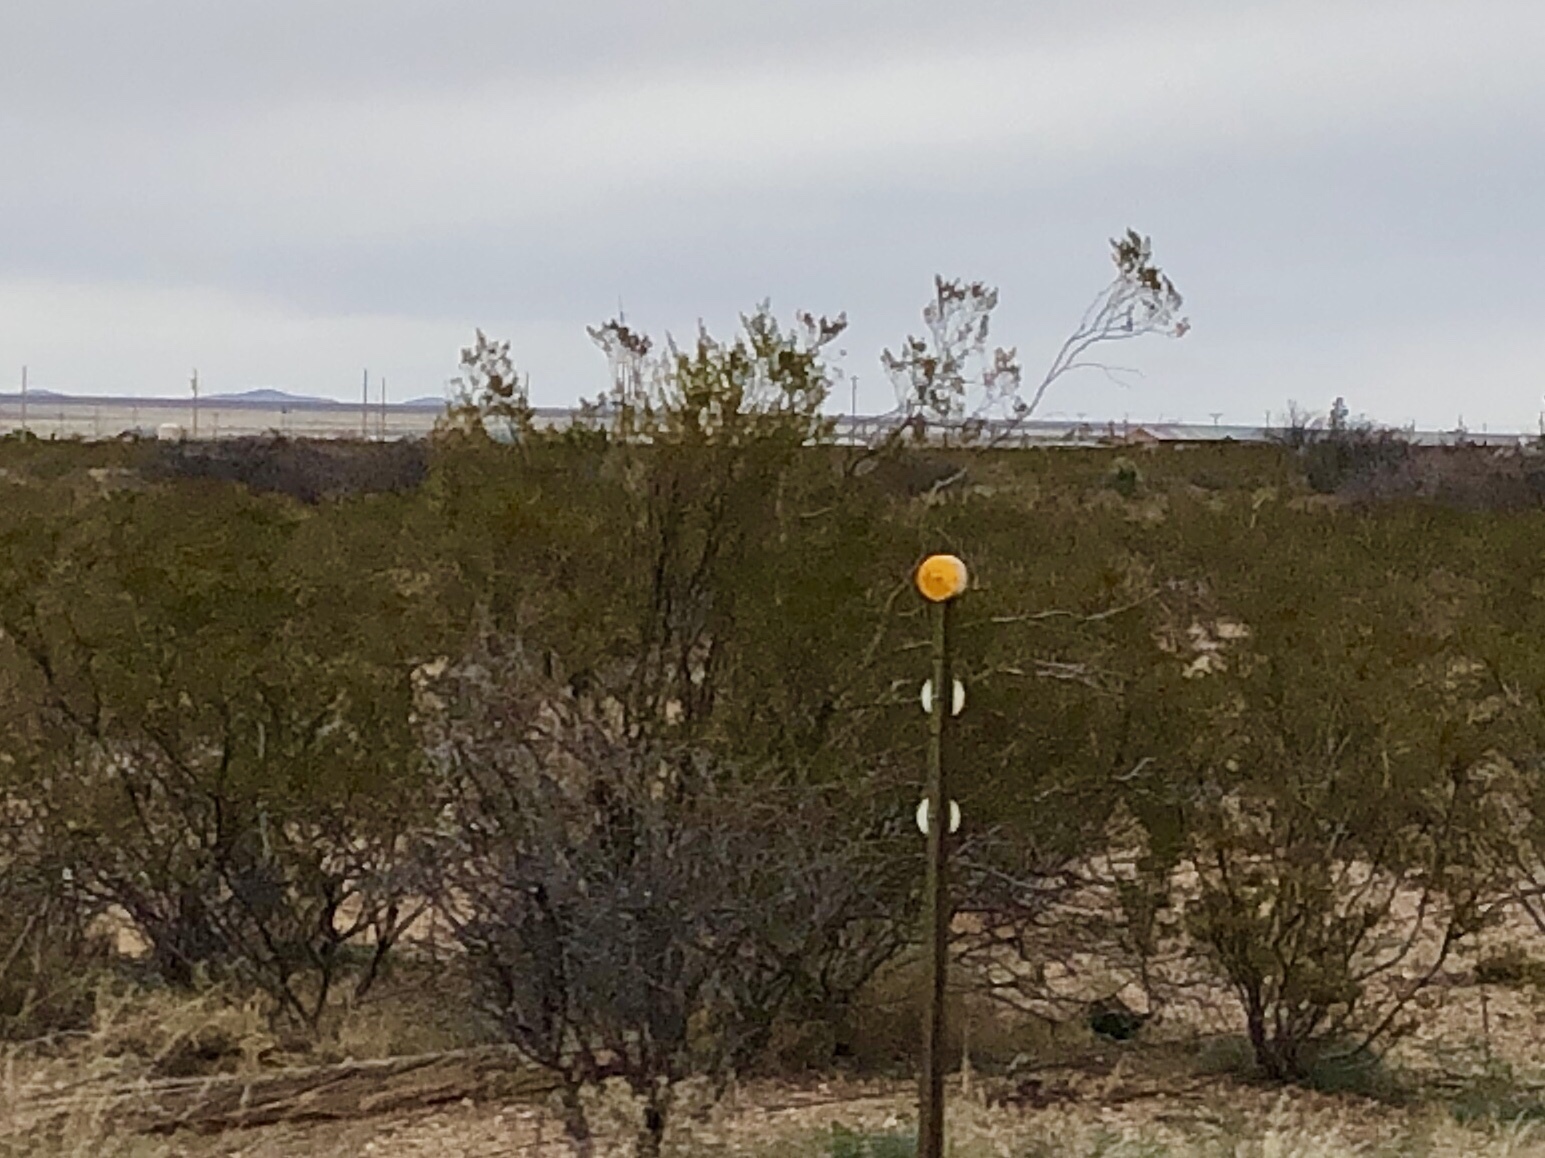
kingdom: Plantae
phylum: Tracheophyta
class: Magnoliopsida
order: Zygophyllales
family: Zygophyllaceae
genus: Larrea
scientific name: Larrea tridentata
